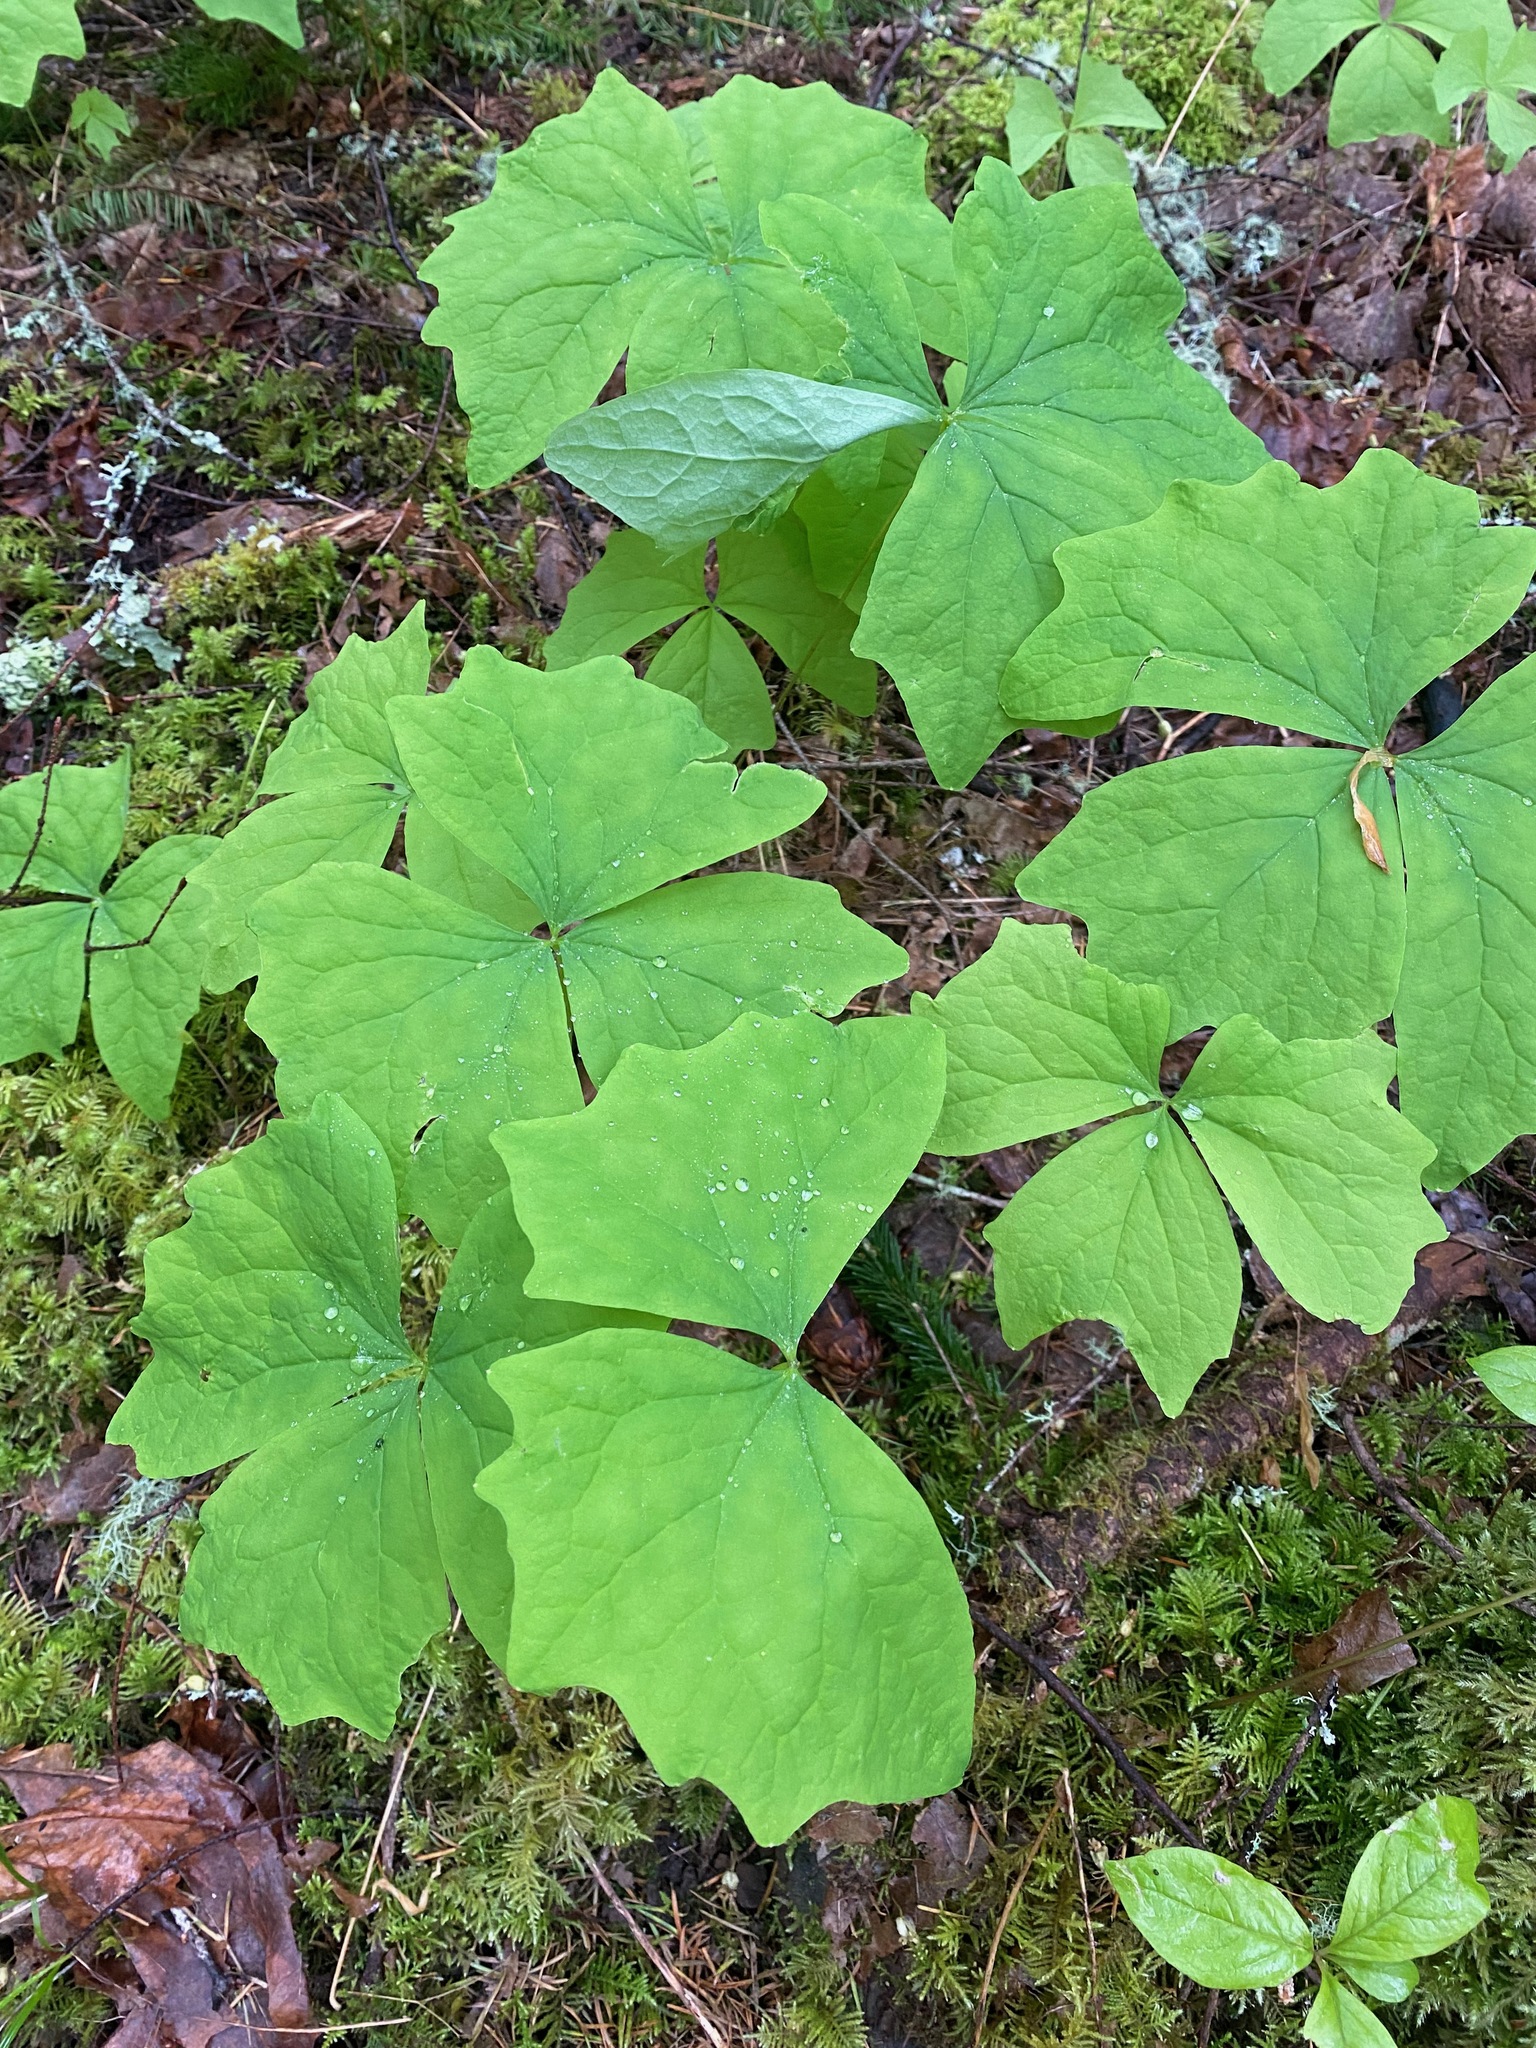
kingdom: Plantae
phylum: Tracheophyta
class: Magnoliopsida
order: Ranunculales
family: Berberidaceae
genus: Achlys
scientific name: Achlys triphylla
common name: Vanilla-leaf
